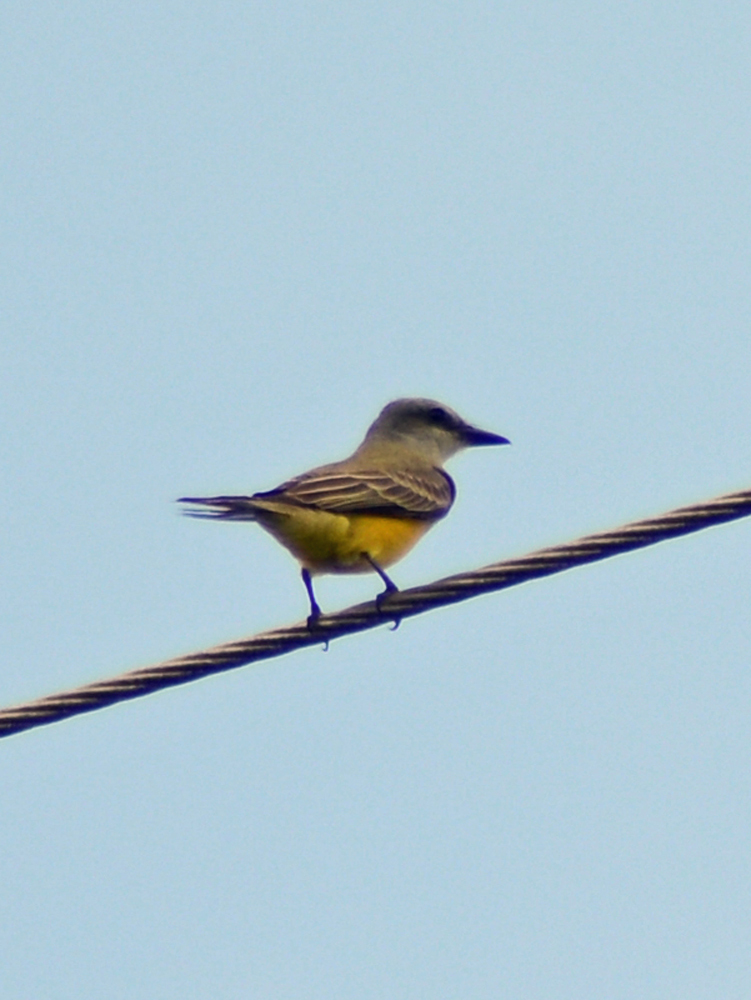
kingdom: Animalia
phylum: Chordata
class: Aves
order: Passeriformes
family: Tyrannidae
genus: Tyrannus
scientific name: Tyrannus couchii
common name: Couch's kingbird
